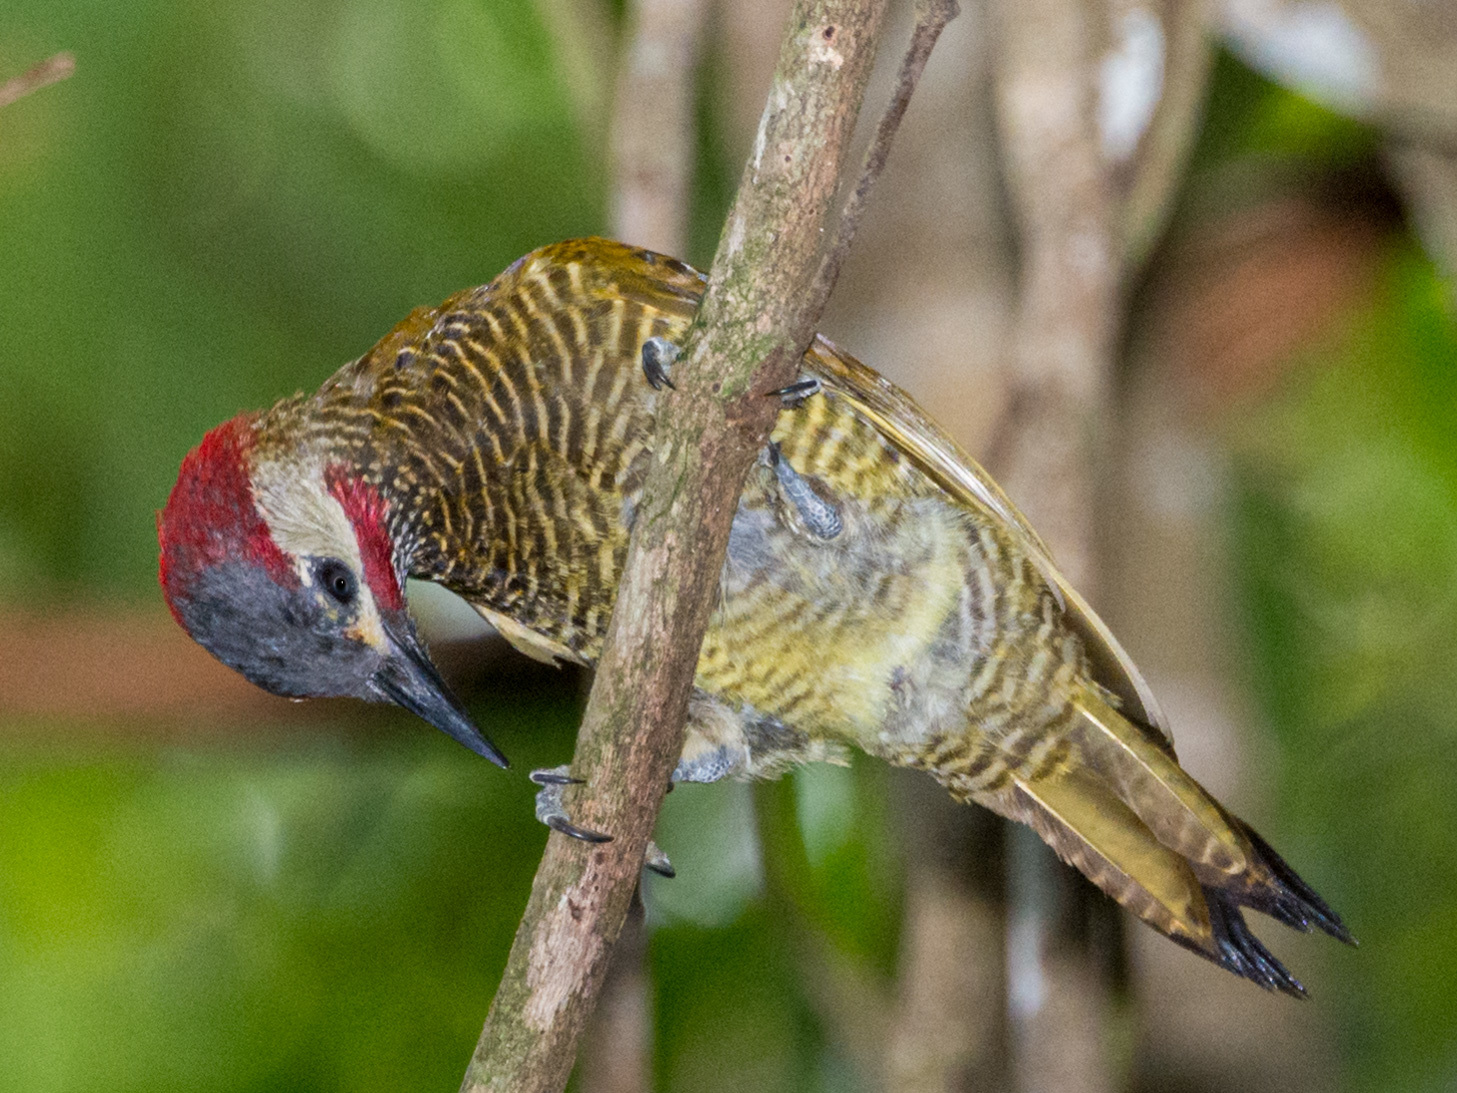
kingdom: Animalia
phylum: Chordata
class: Aves
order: Piciformes
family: Picidae
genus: Colaptes
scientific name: Colaptes rubiginosus
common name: Golden-olive woodpecker
